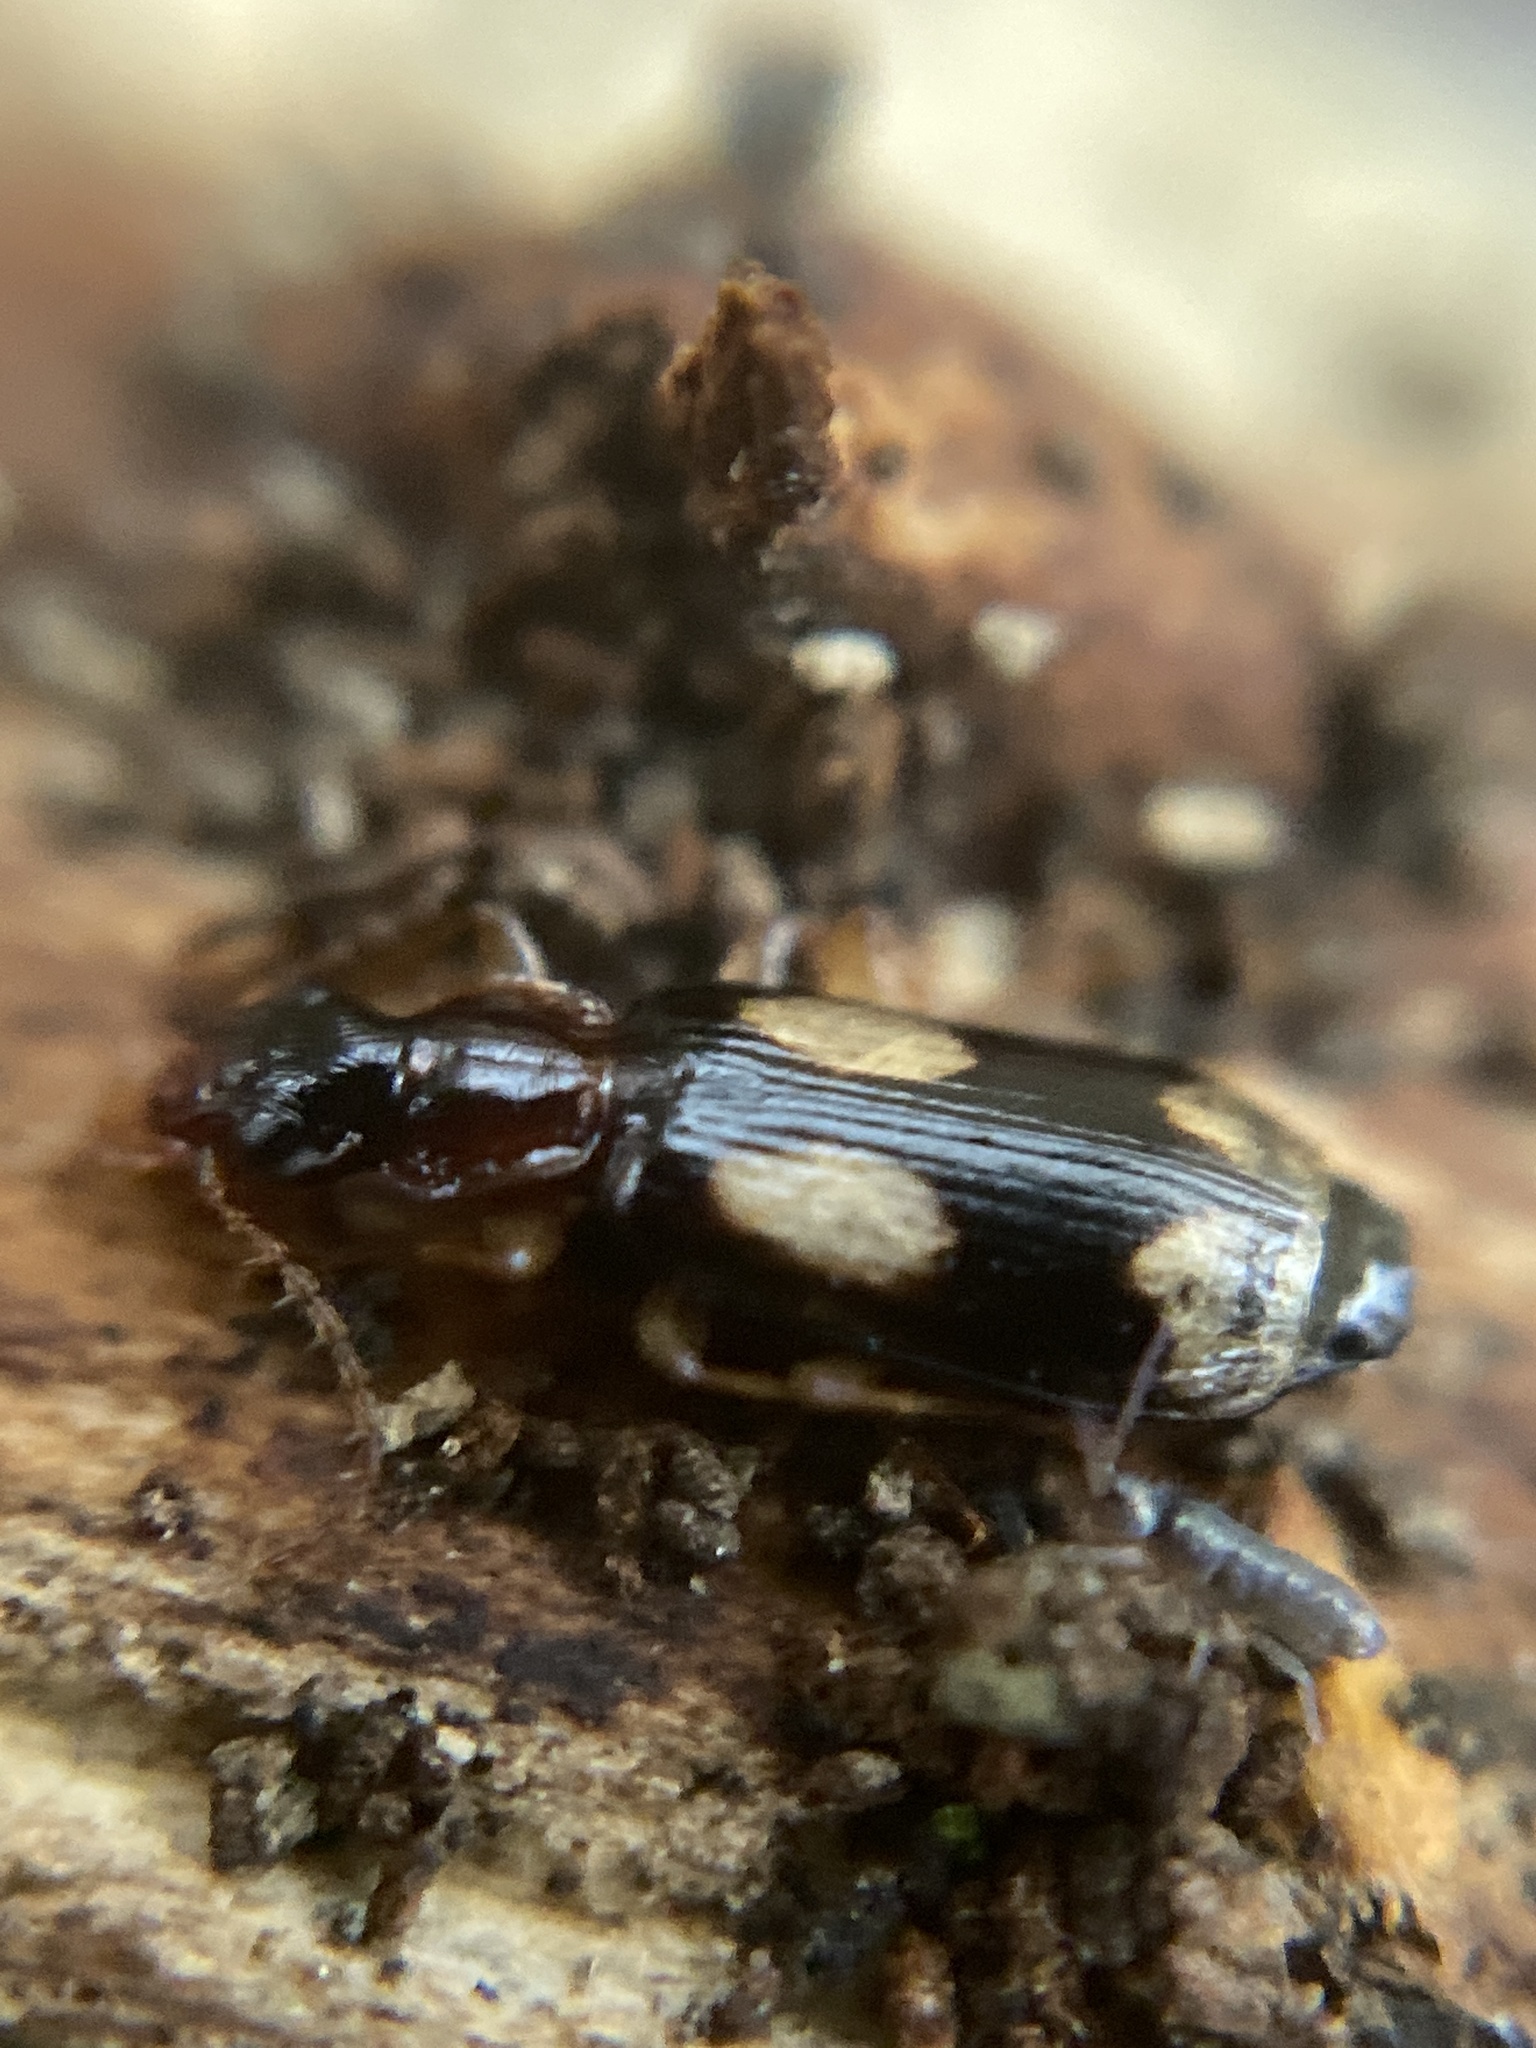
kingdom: Animalia
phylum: Arthropoda
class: Insecta
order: Coleoptera
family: Carabidae
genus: Dromius
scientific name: Dromius quadrimaculatus
